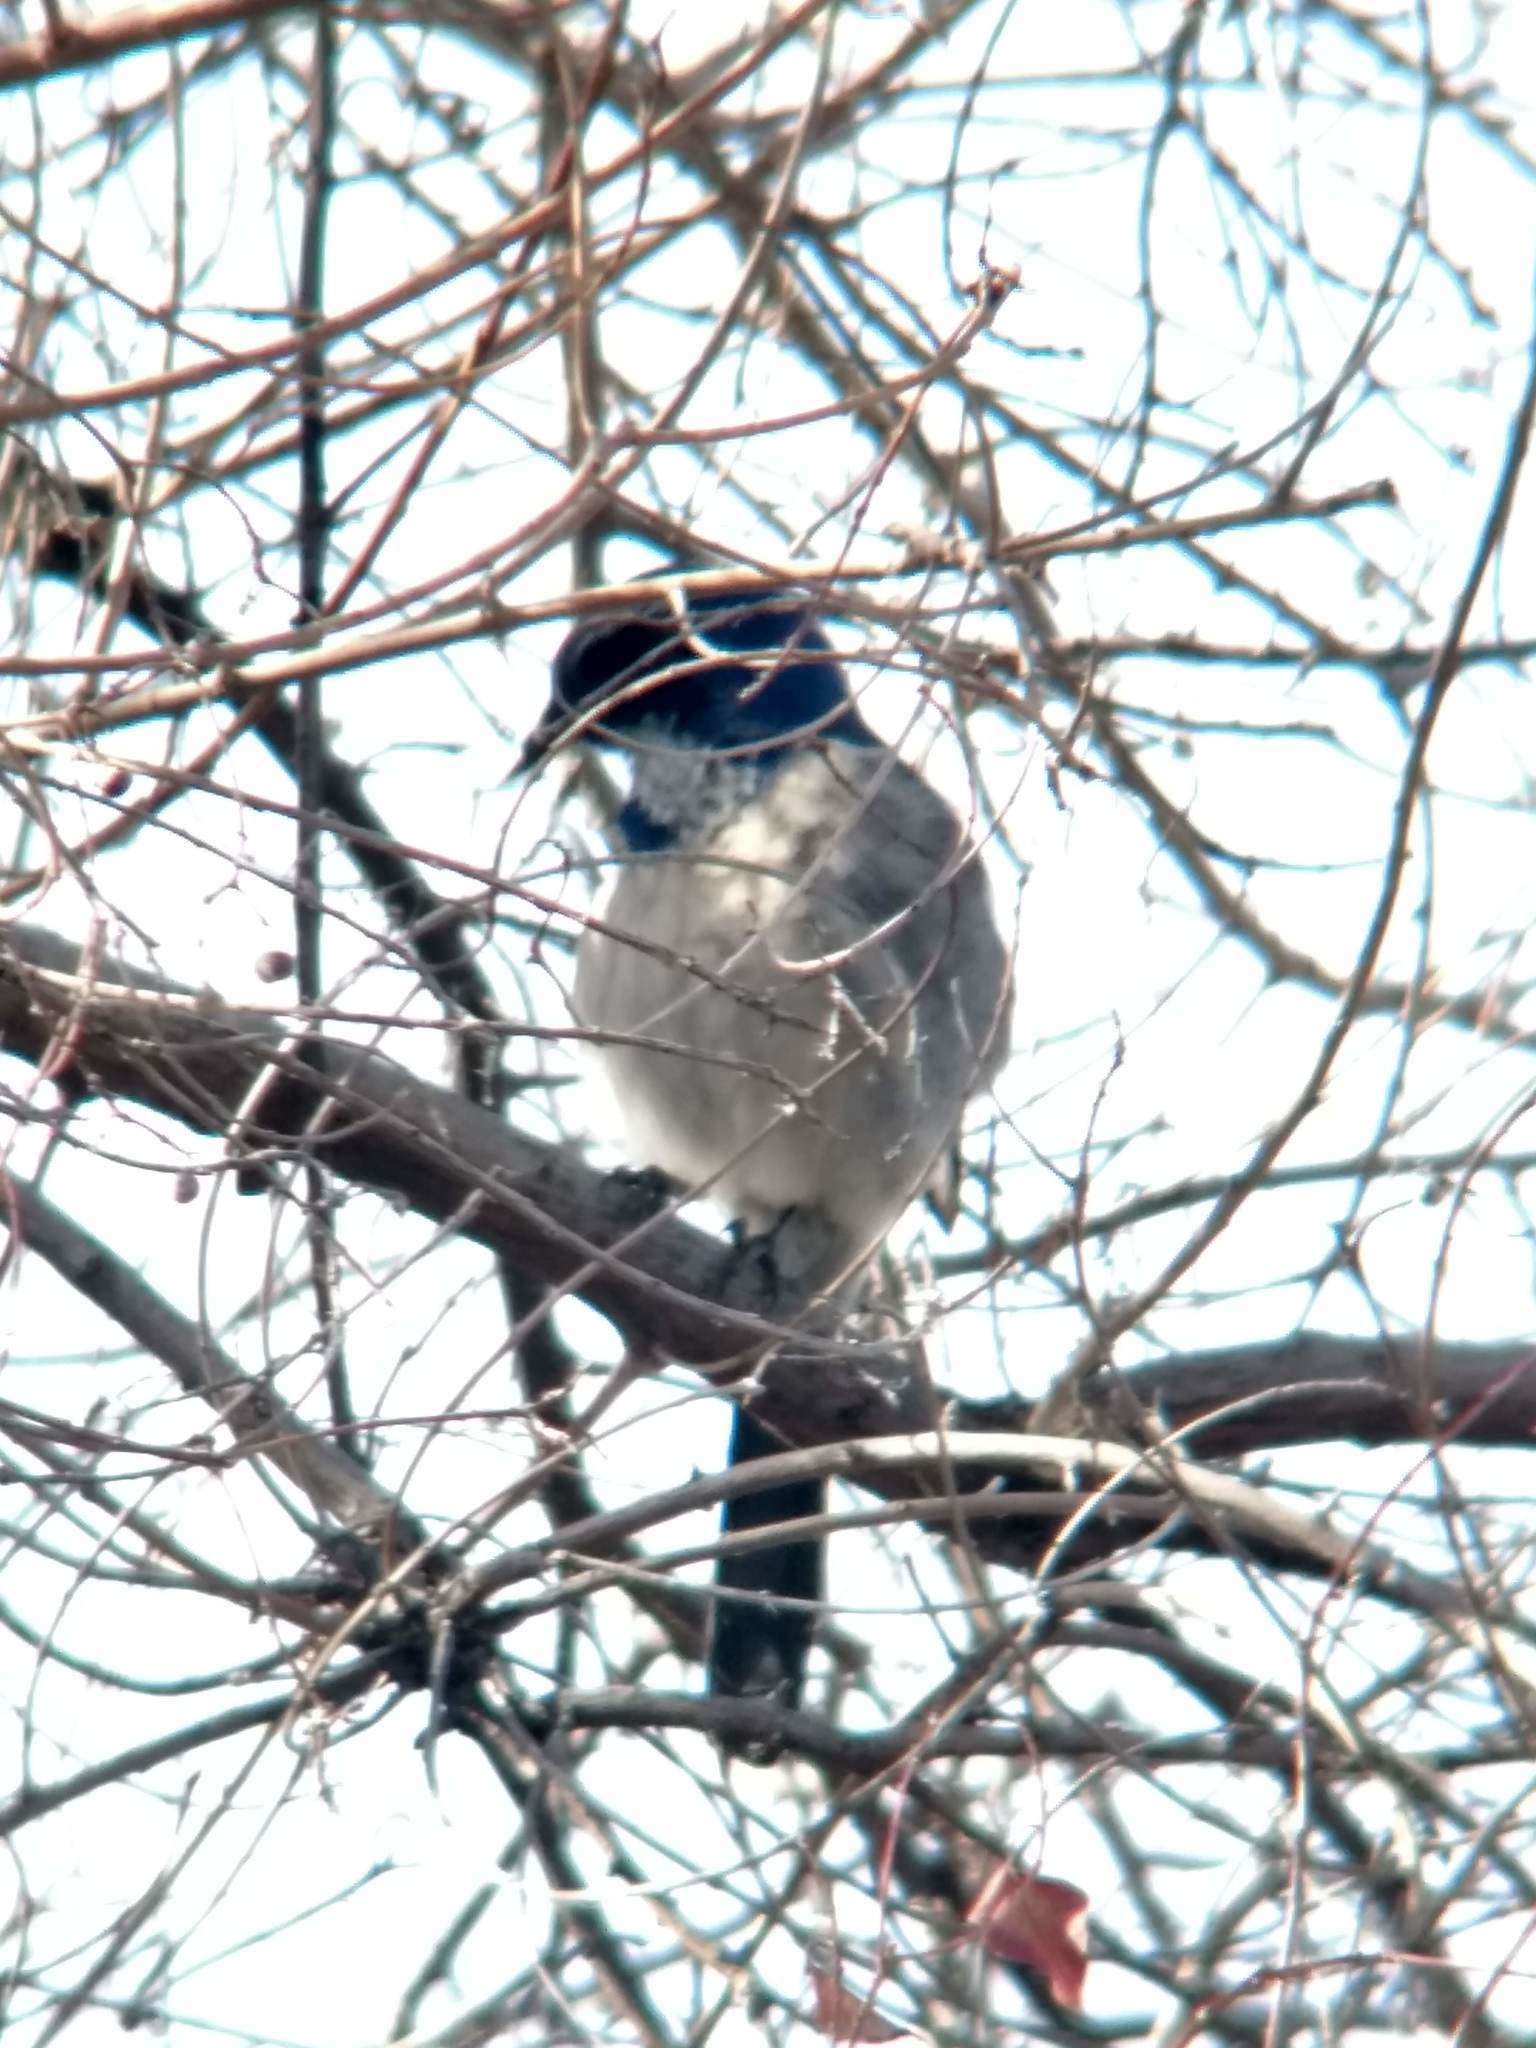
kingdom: Animalia
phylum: Chordata
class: Aves
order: Passeriformes
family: Corvidae
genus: Aphelocoma
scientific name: Aphelocoma californica
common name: California scrub-jay
